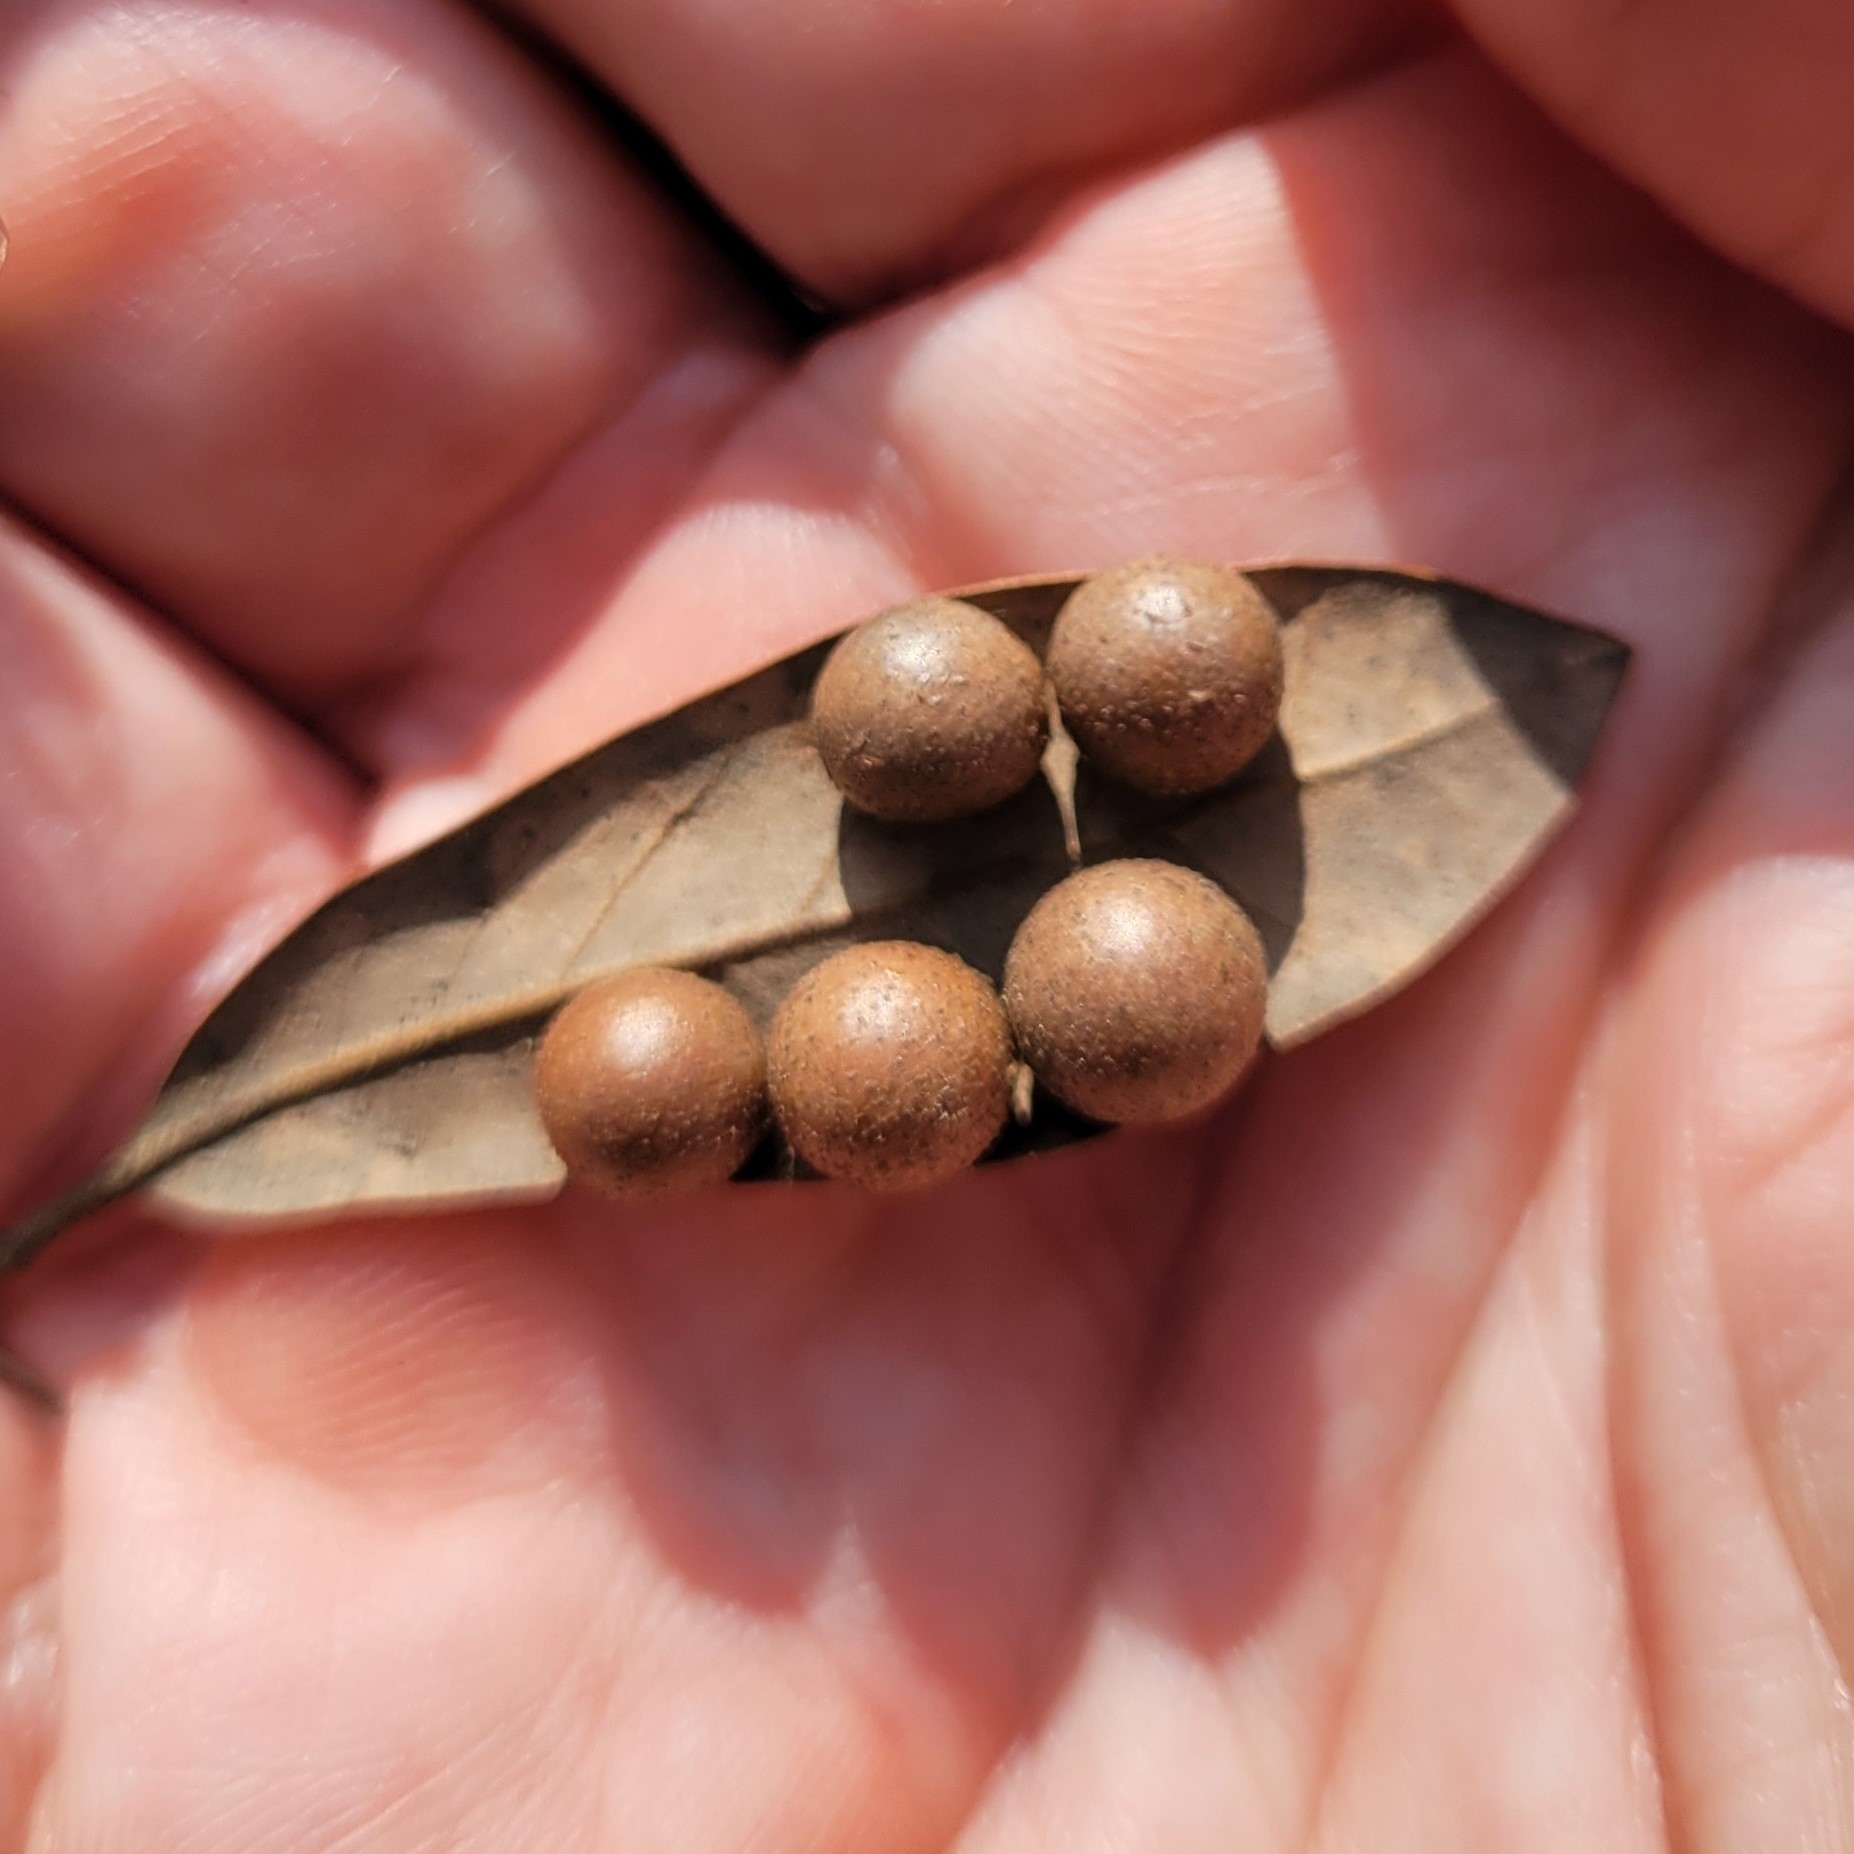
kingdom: Animalia
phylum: Arthropoda
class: Insecta
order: Hymenoptera
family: Cynipidae
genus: Belonocnema
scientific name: Belonocnema treatae
